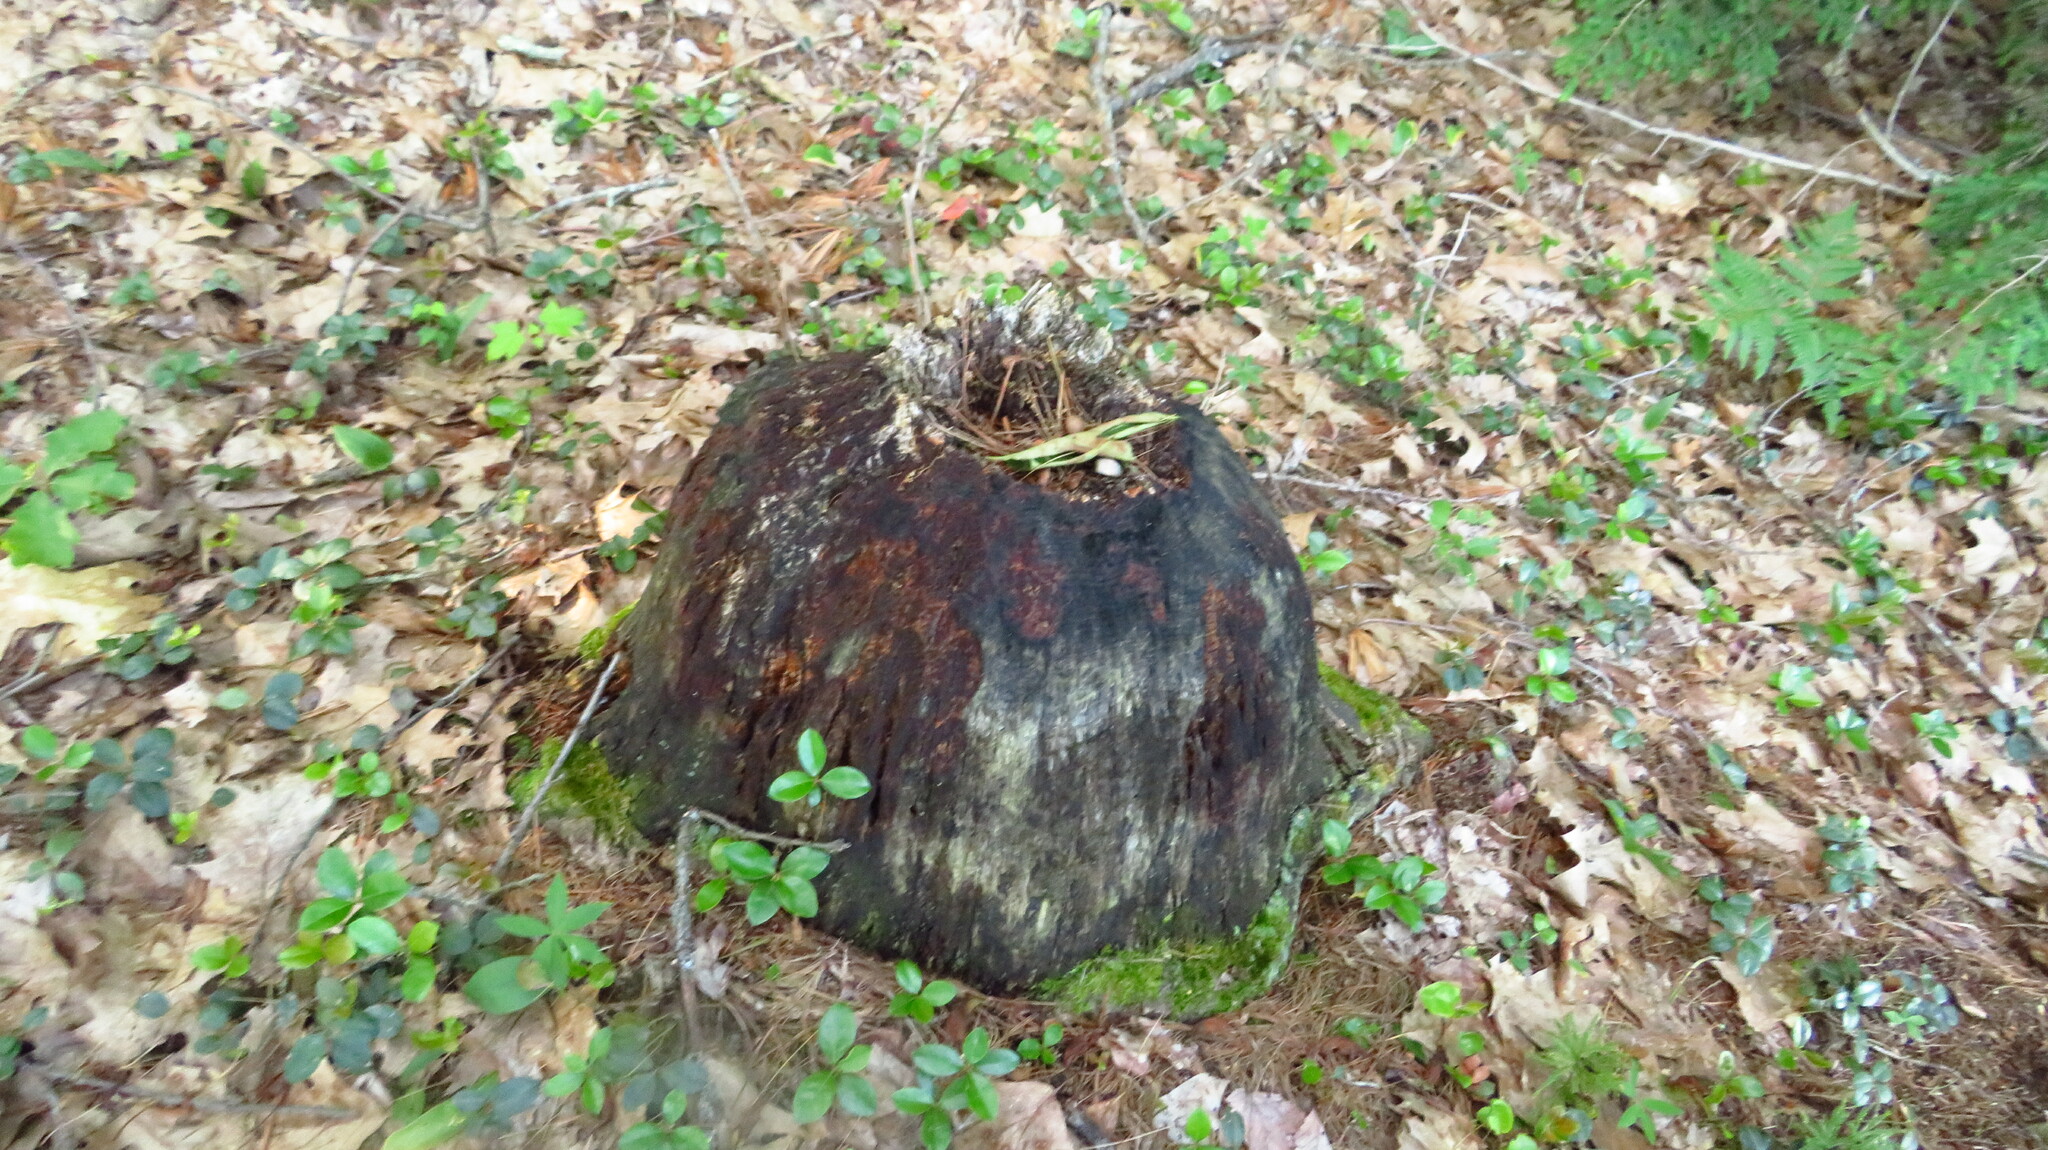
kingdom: Animalia
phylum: Chordata
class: Mammalia
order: Rodentia
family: Castoridae
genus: Castor
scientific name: Castor canadensis
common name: American beaver
